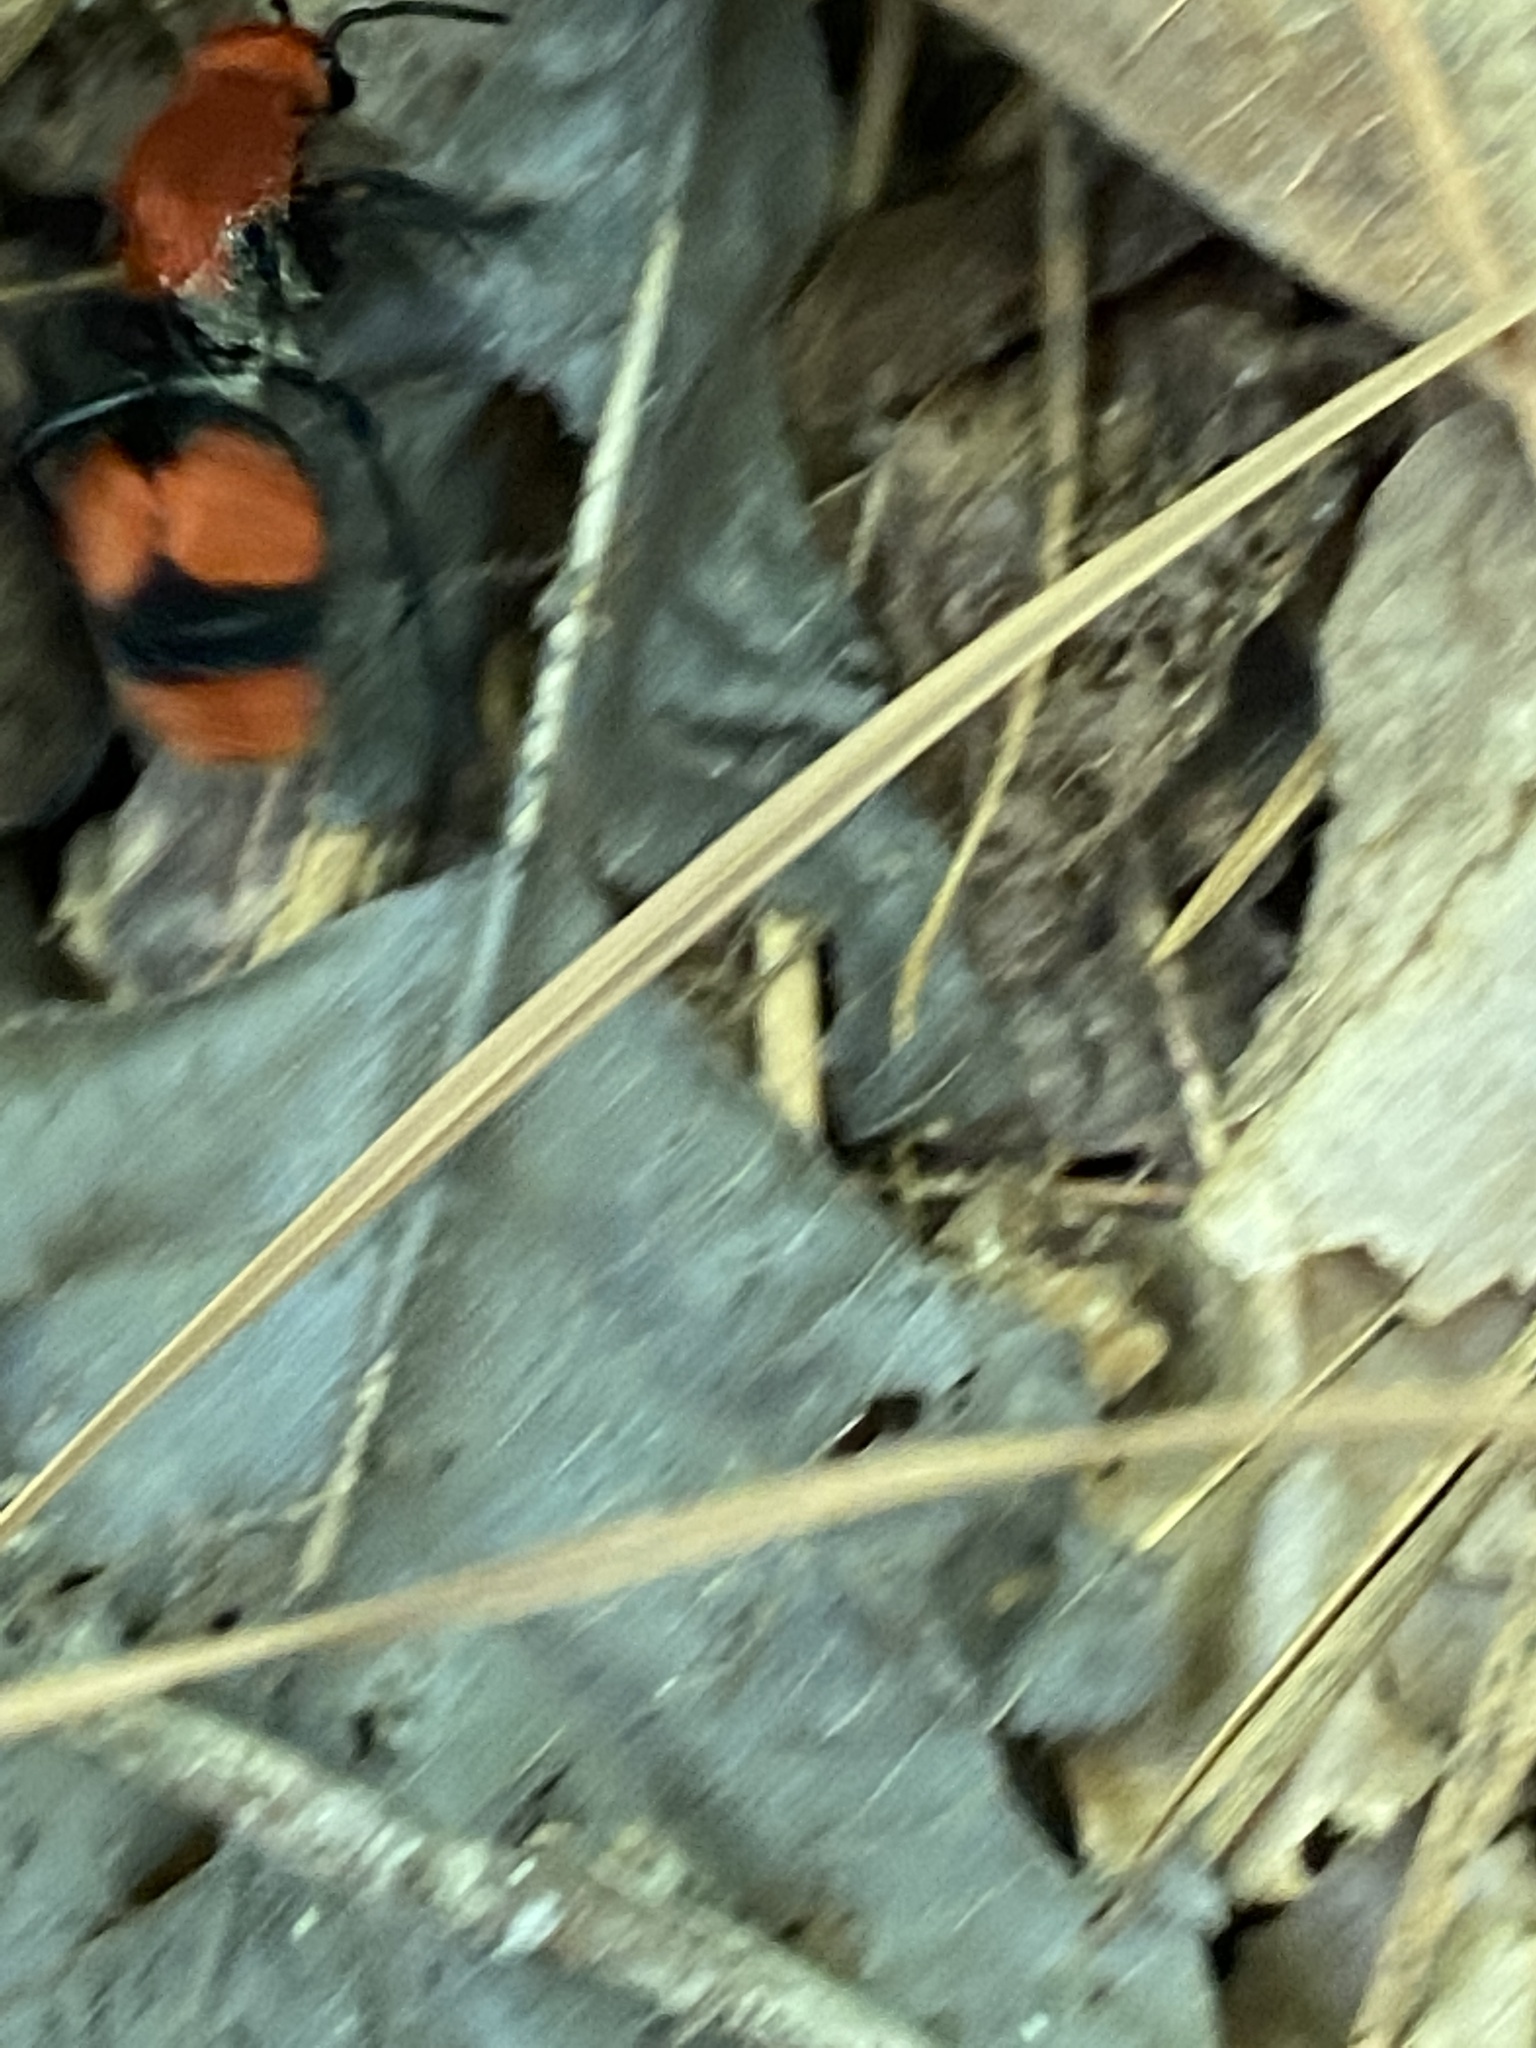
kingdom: Animalia
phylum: Arthropoda
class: Insecta
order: Hymenoptera
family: Mutillidae
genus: Dasymutilla
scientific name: Dasymutilla occidentalis
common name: Common eastern velvet ant
